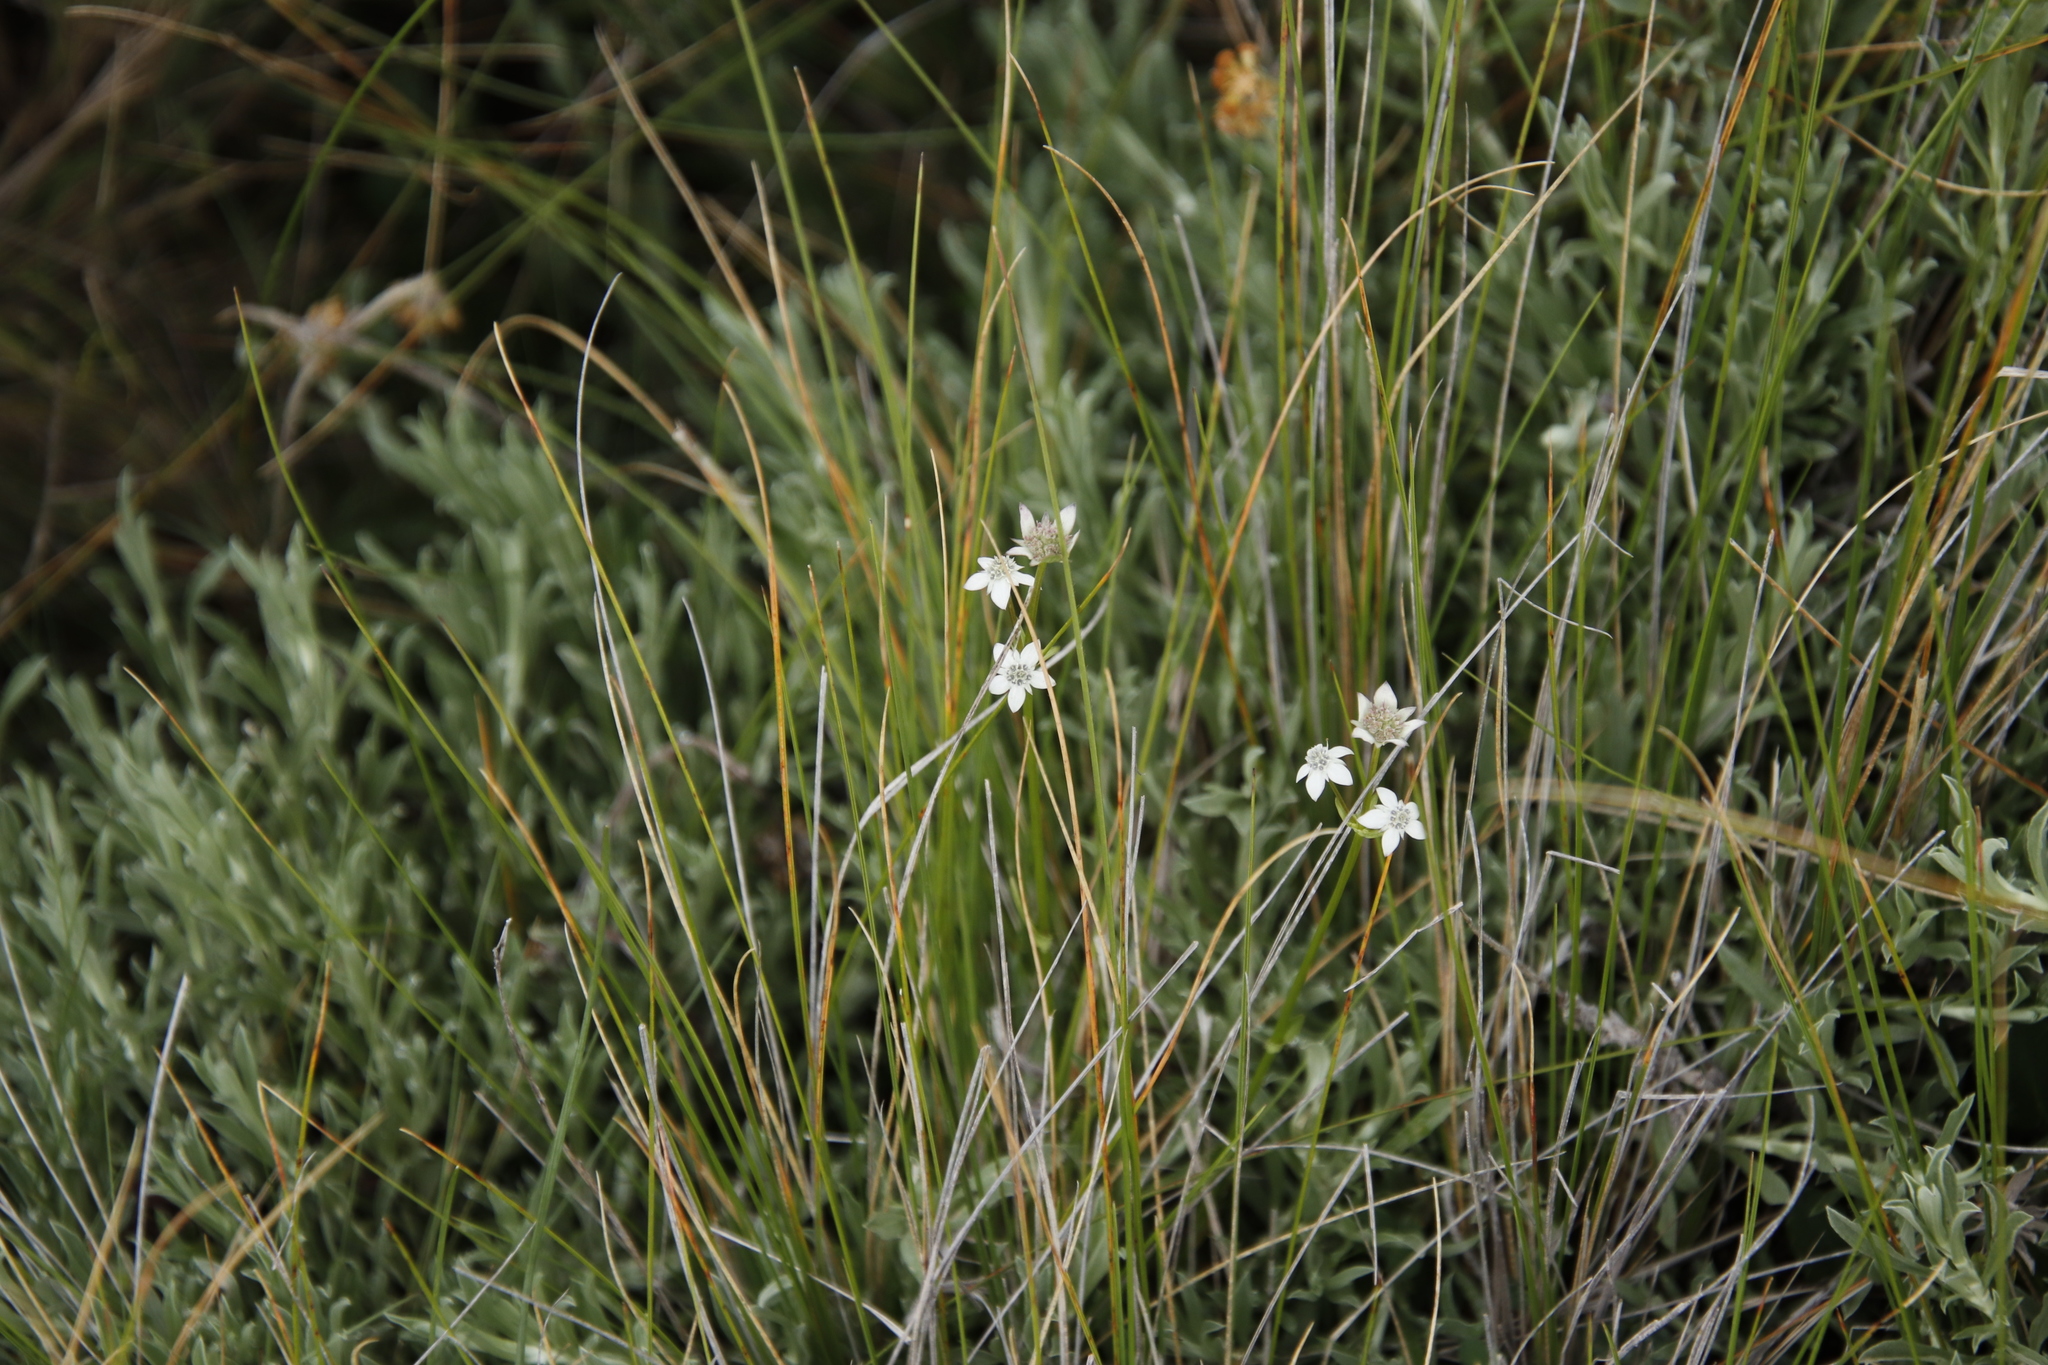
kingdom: Plantae
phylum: Tracheophyta
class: Magnoliopsida
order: Apiales
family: Apiaceae
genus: Alepidea
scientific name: Alepidea serrata
